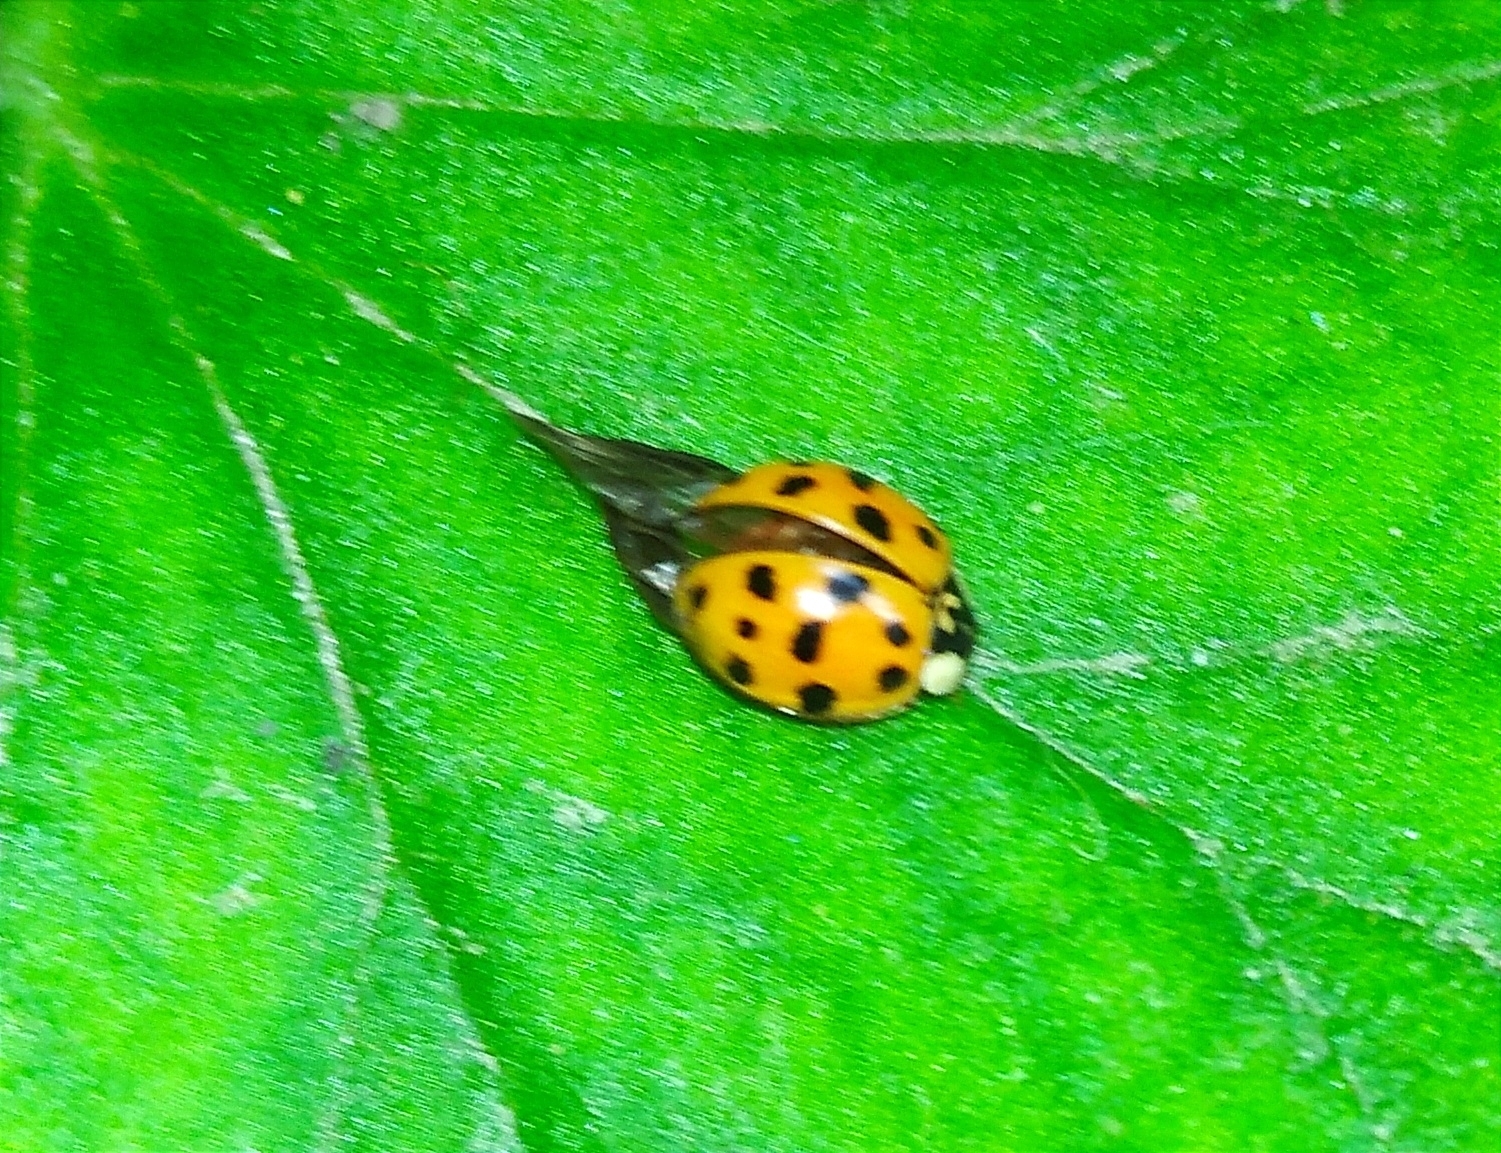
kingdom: Animalia
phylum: Arthropoda
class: Insecta
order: Coleoptera
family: Coccinellidae
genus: Harmonia
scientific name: Harmonia axyridis
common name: Harlequin ladybird
